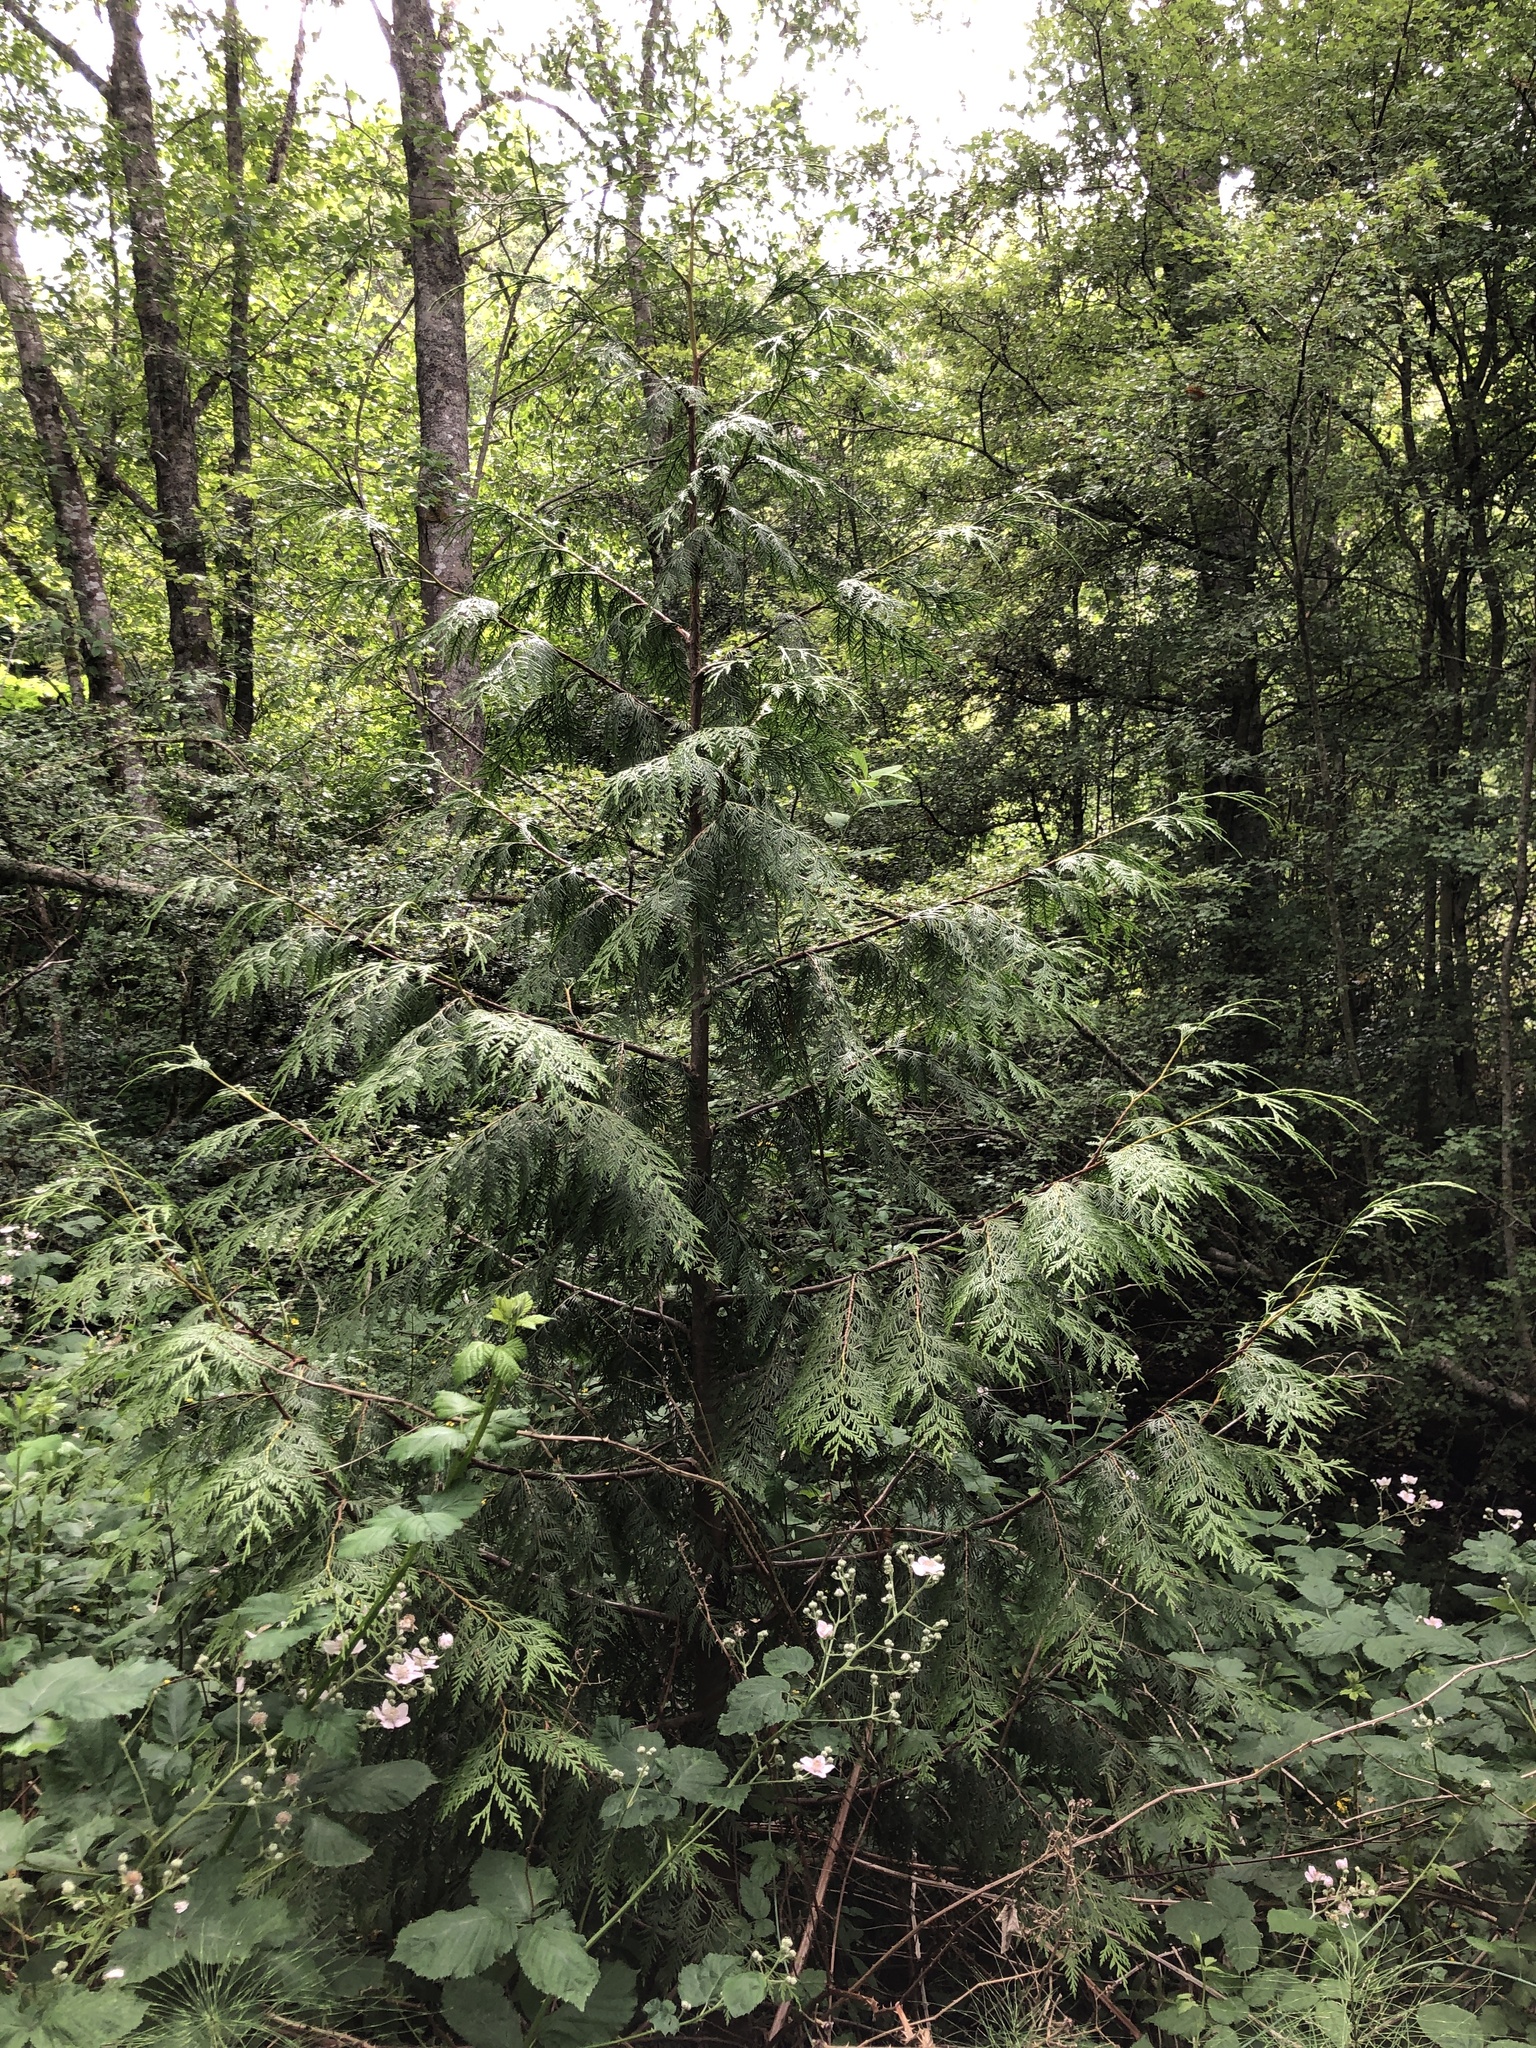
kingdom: Plantae
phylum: Tracheophyta
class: Pinopsida
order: Pinales
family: Cupressaceae
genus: Thuja
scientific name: Thuja plicata
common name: Western red-cedar
